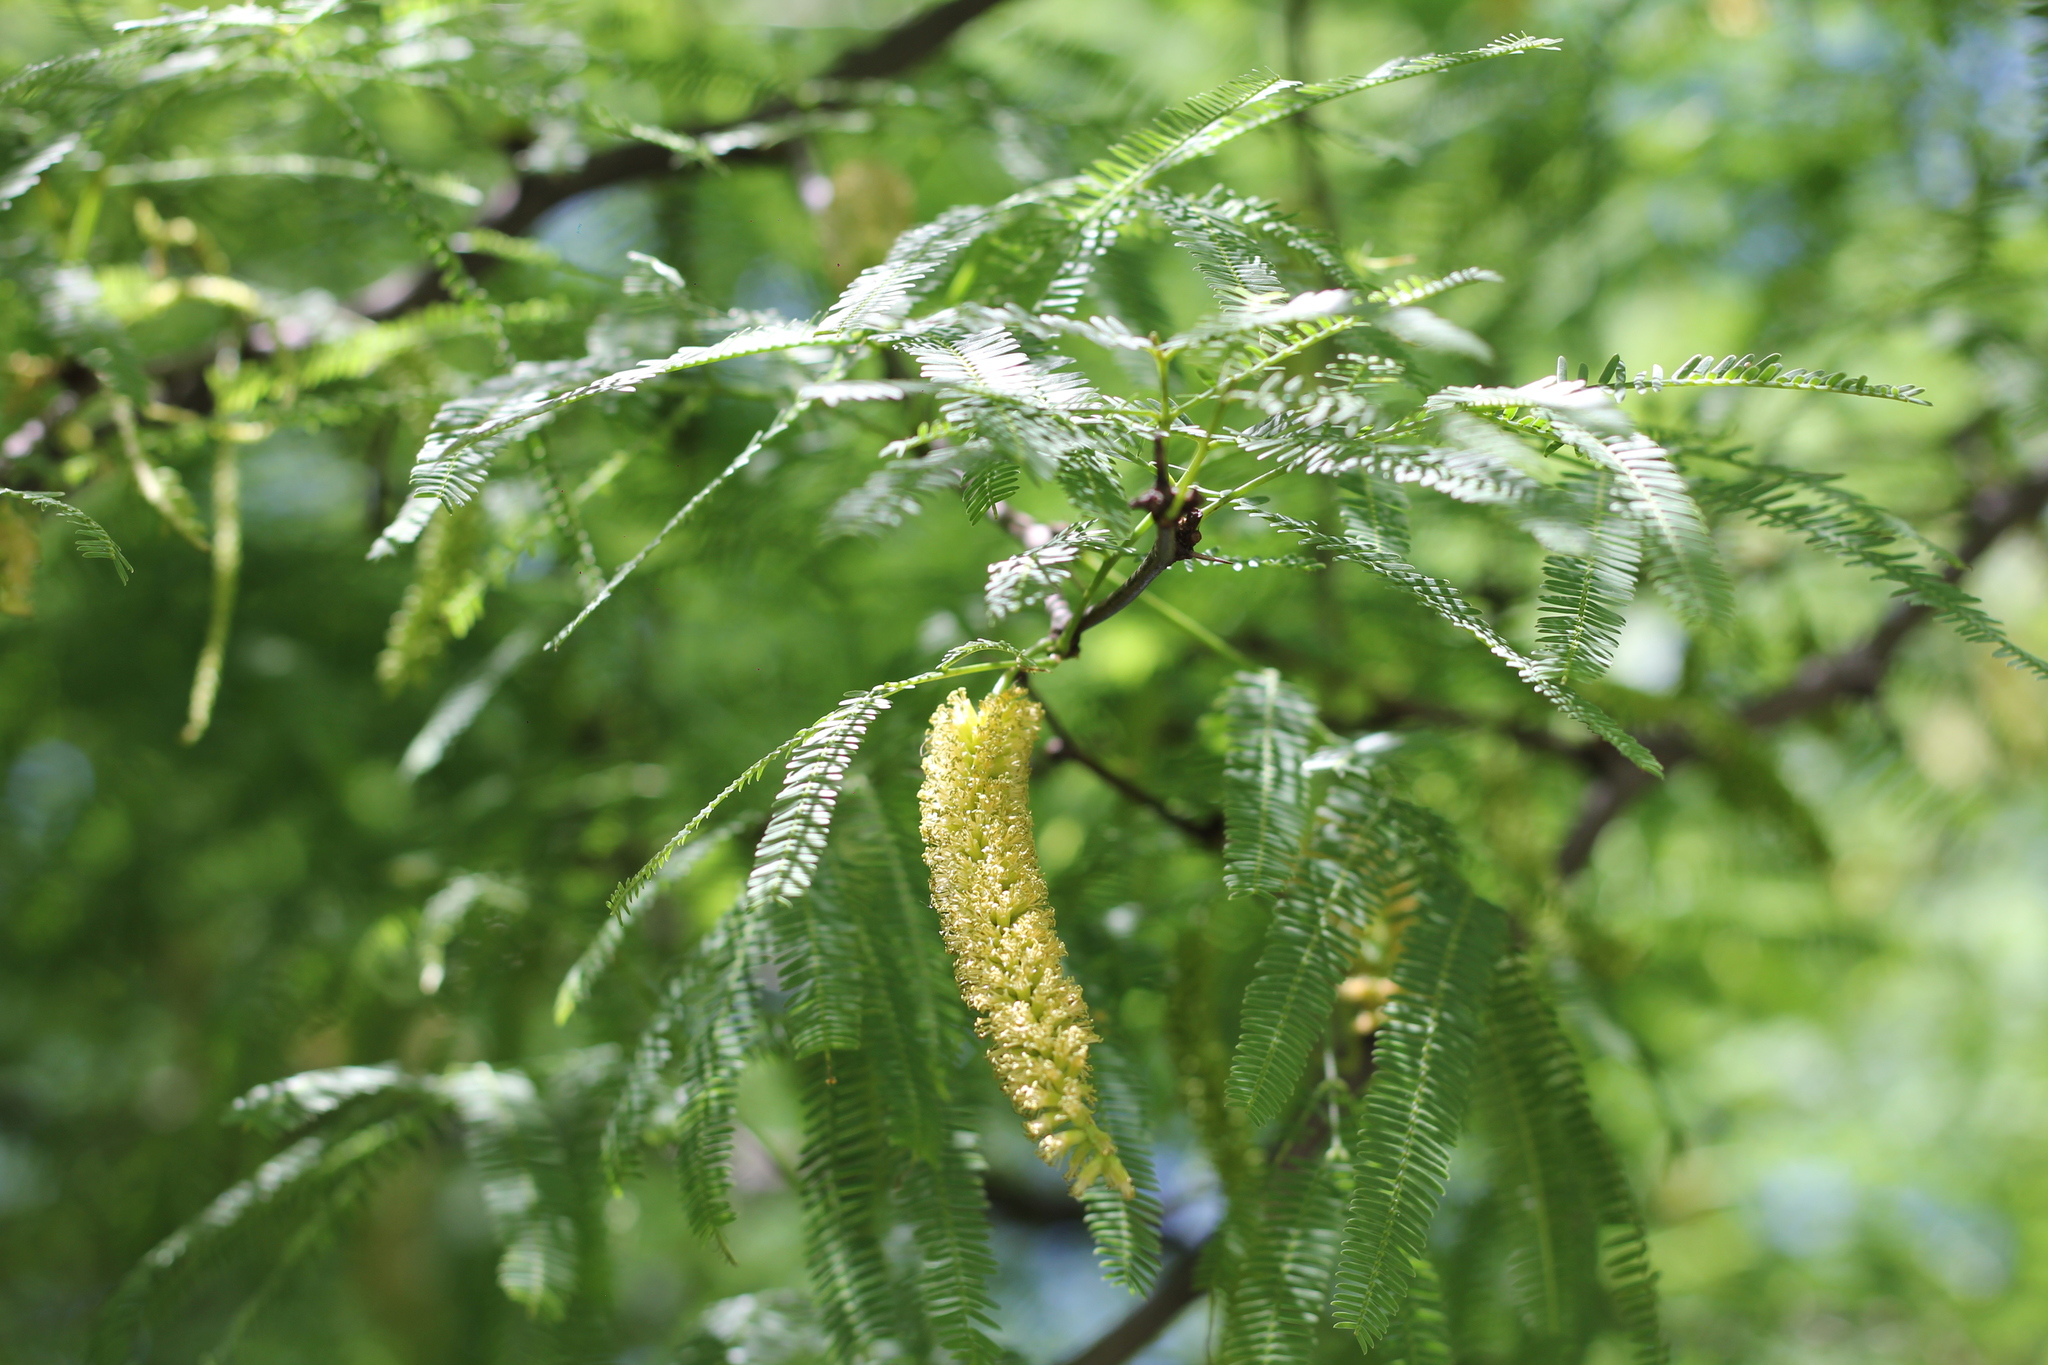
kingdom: Plantae
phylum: Tracheophyta
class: Magnoliopsida
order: Fabales
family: Fabaceae
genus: Prosopis
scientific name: Prosopis alba
